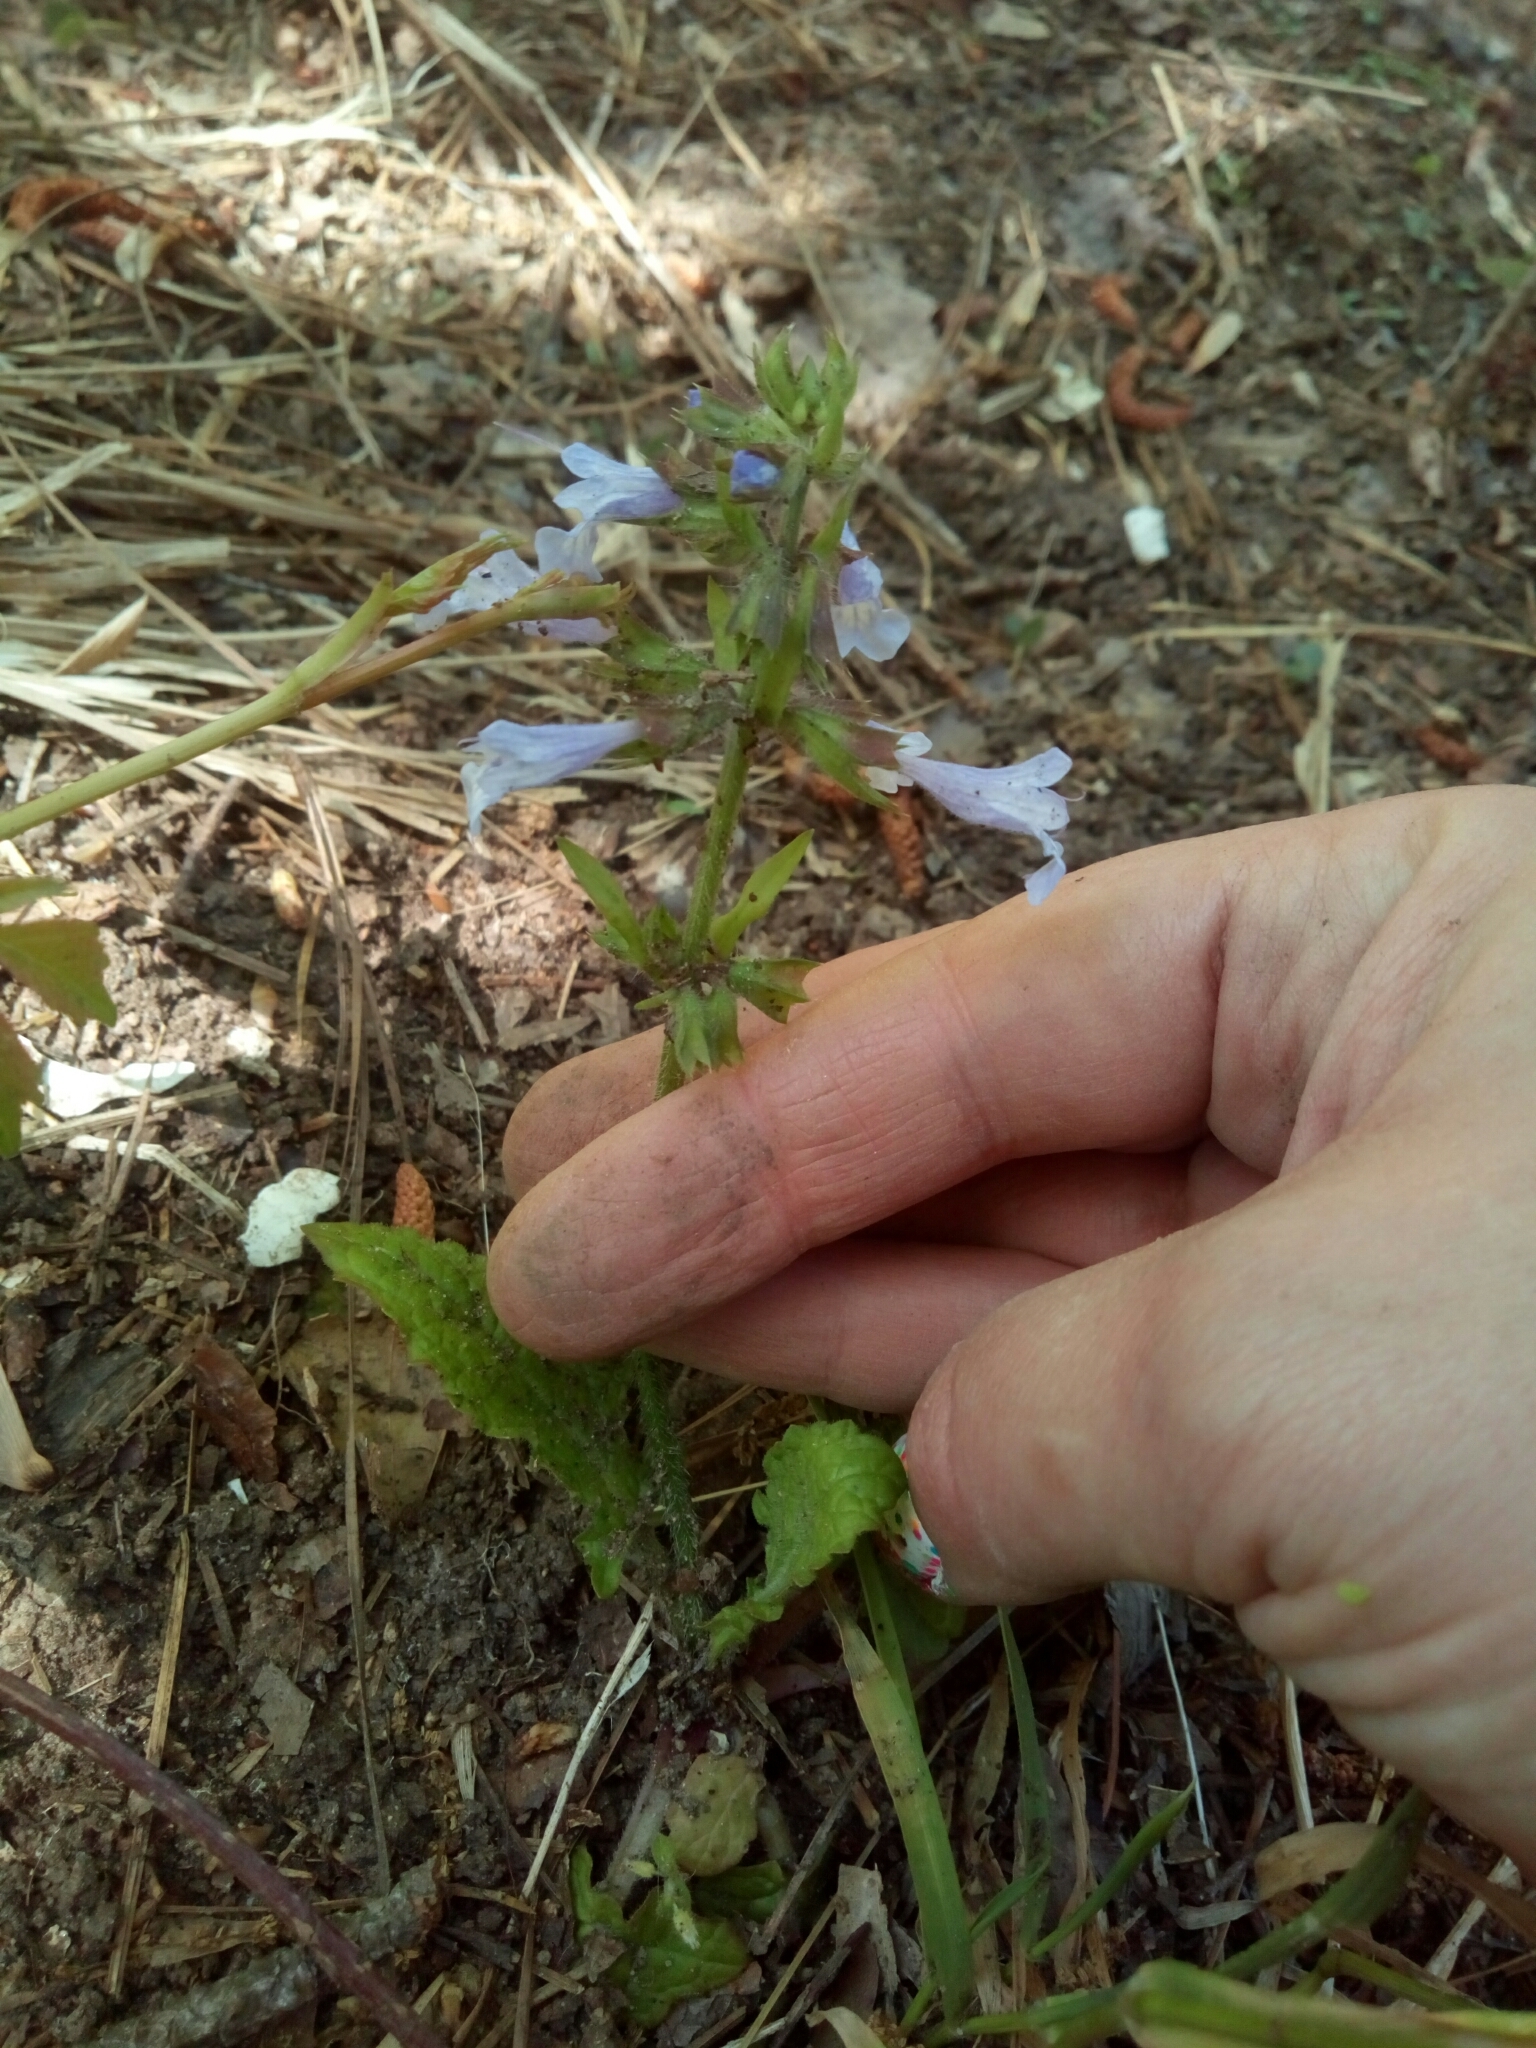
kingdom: Plantae
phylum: Tracheophyta
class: Magnoliopsida
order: Lamiales
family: Lamiaceae
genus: Salvia
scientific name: Salvia lyrata
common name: Cancerweed
